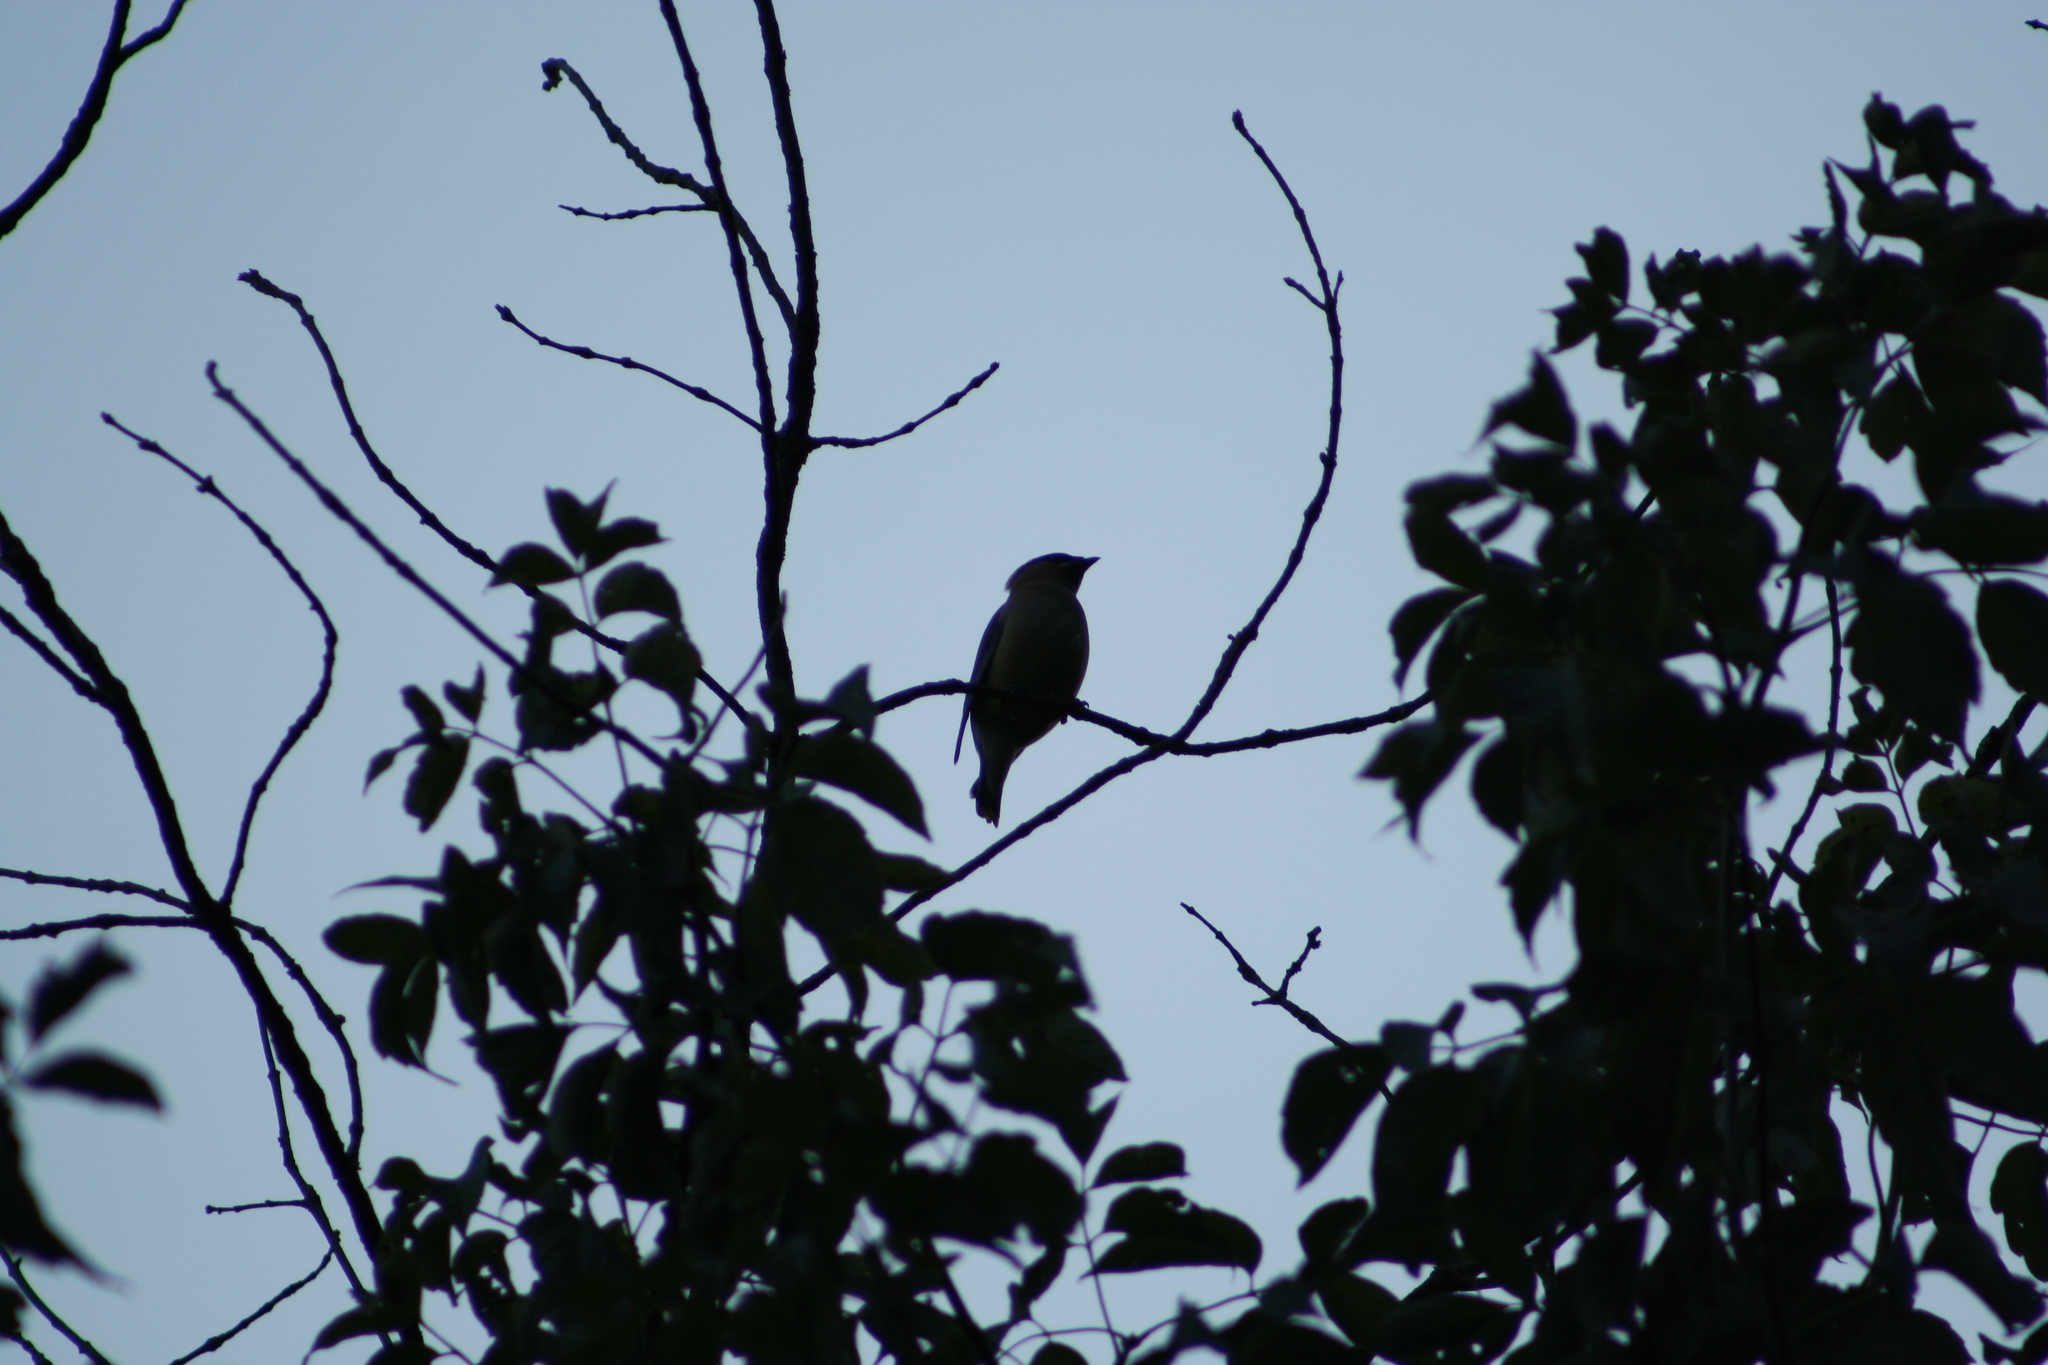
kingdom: Animalia
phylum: Chordata
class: Aves
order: Passeriformes
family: Bombycillidae
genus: Bombycilla
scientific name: Bombycilla cedrorum
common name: Cedar waxwing
